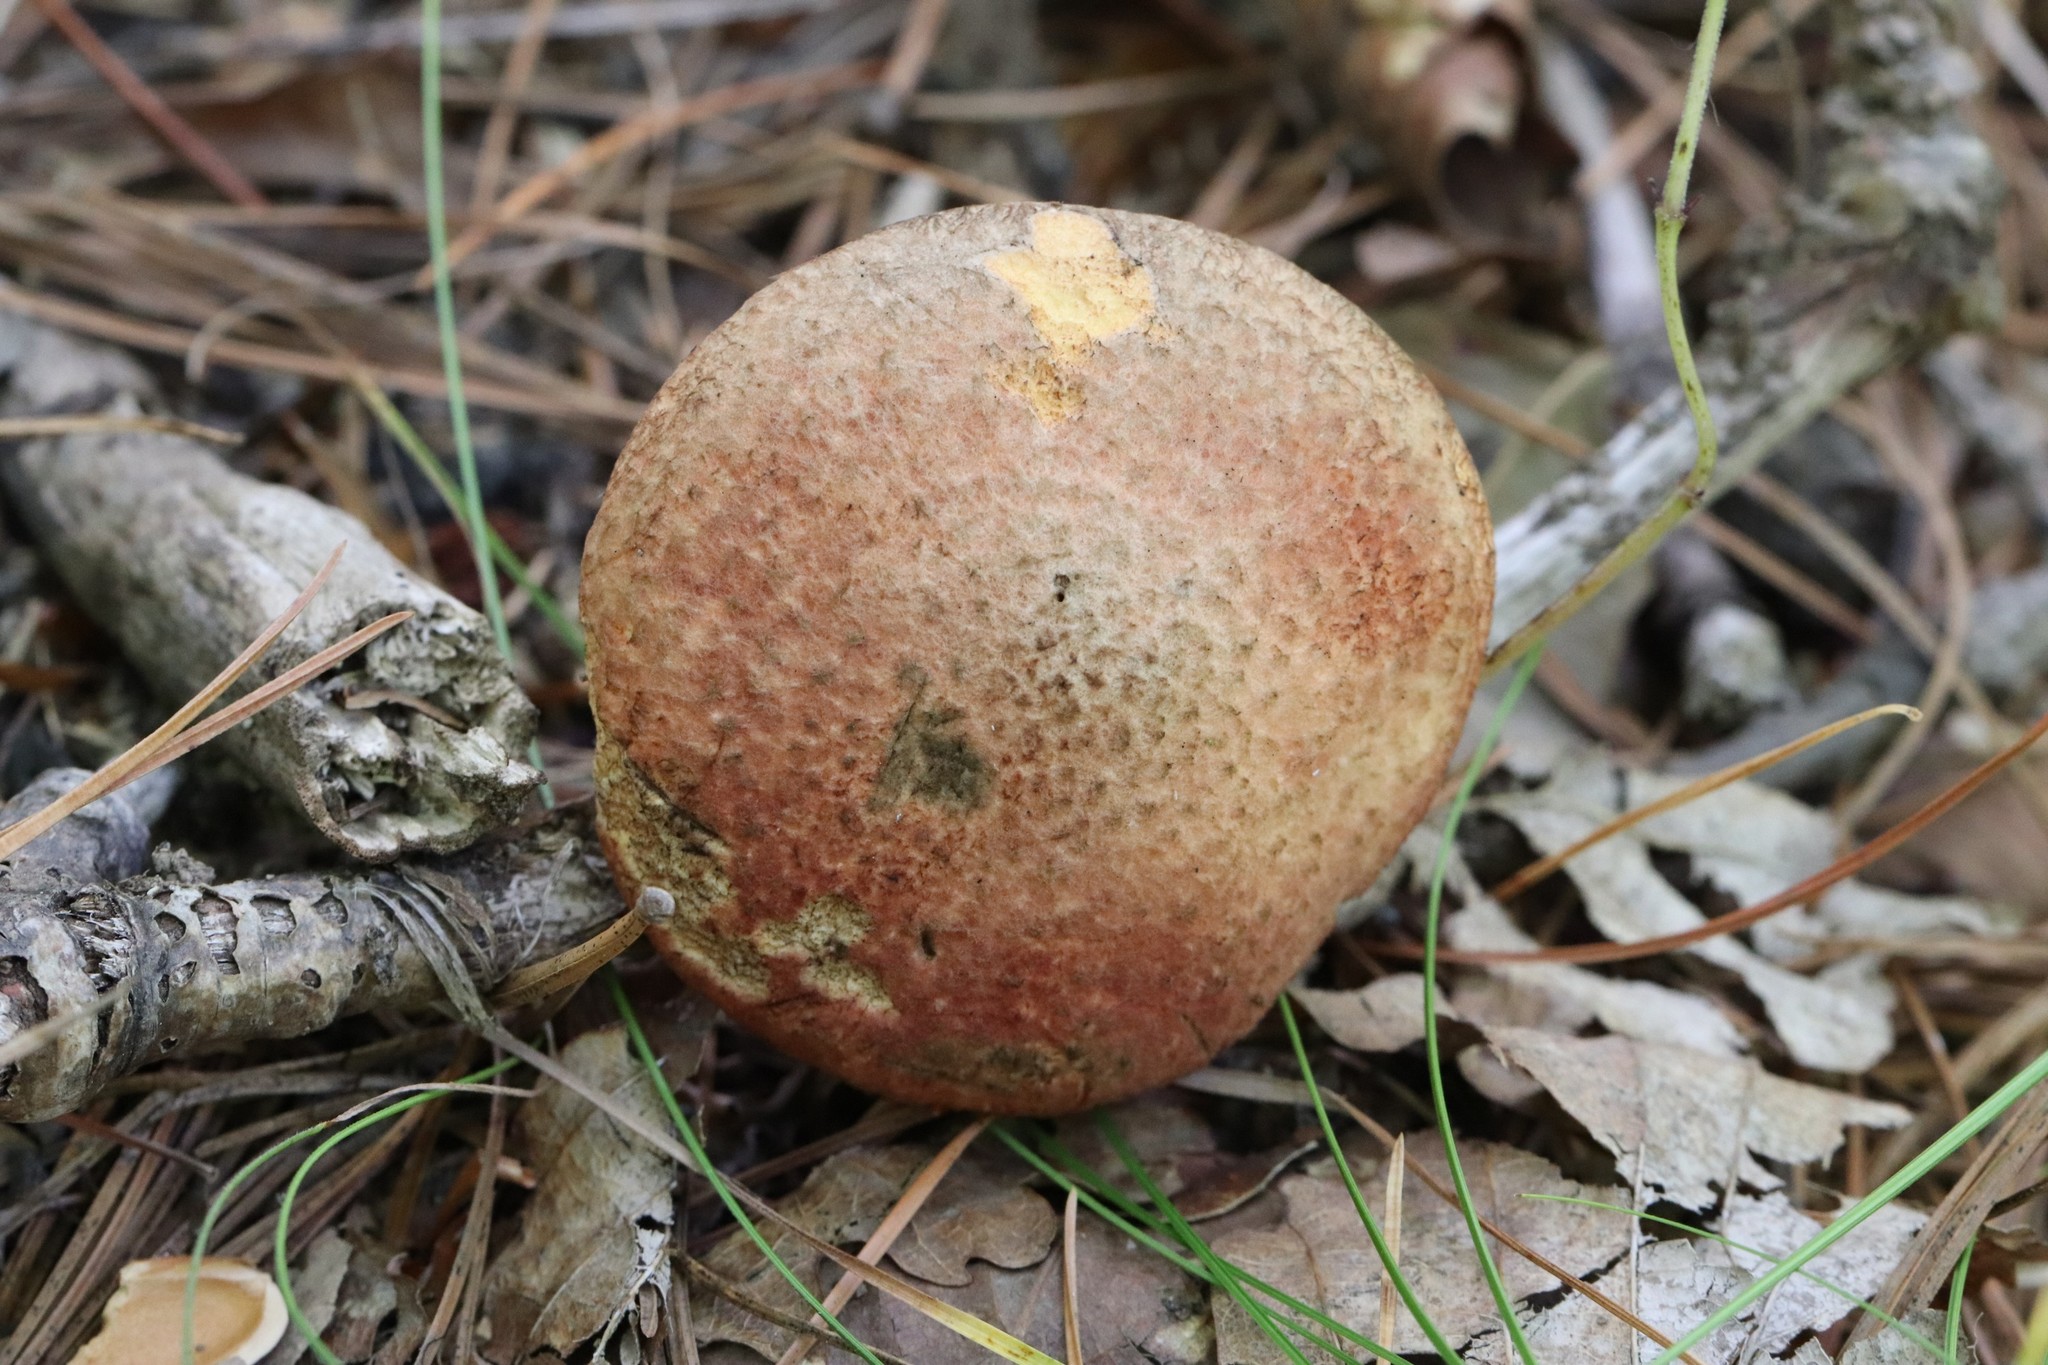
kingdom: Fungi
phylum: Basidiomycota
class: Agaricomycetes
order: Boletales
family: Suillaceae
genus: Suillus
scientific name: Suillus spraguei
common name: Painted suillus
